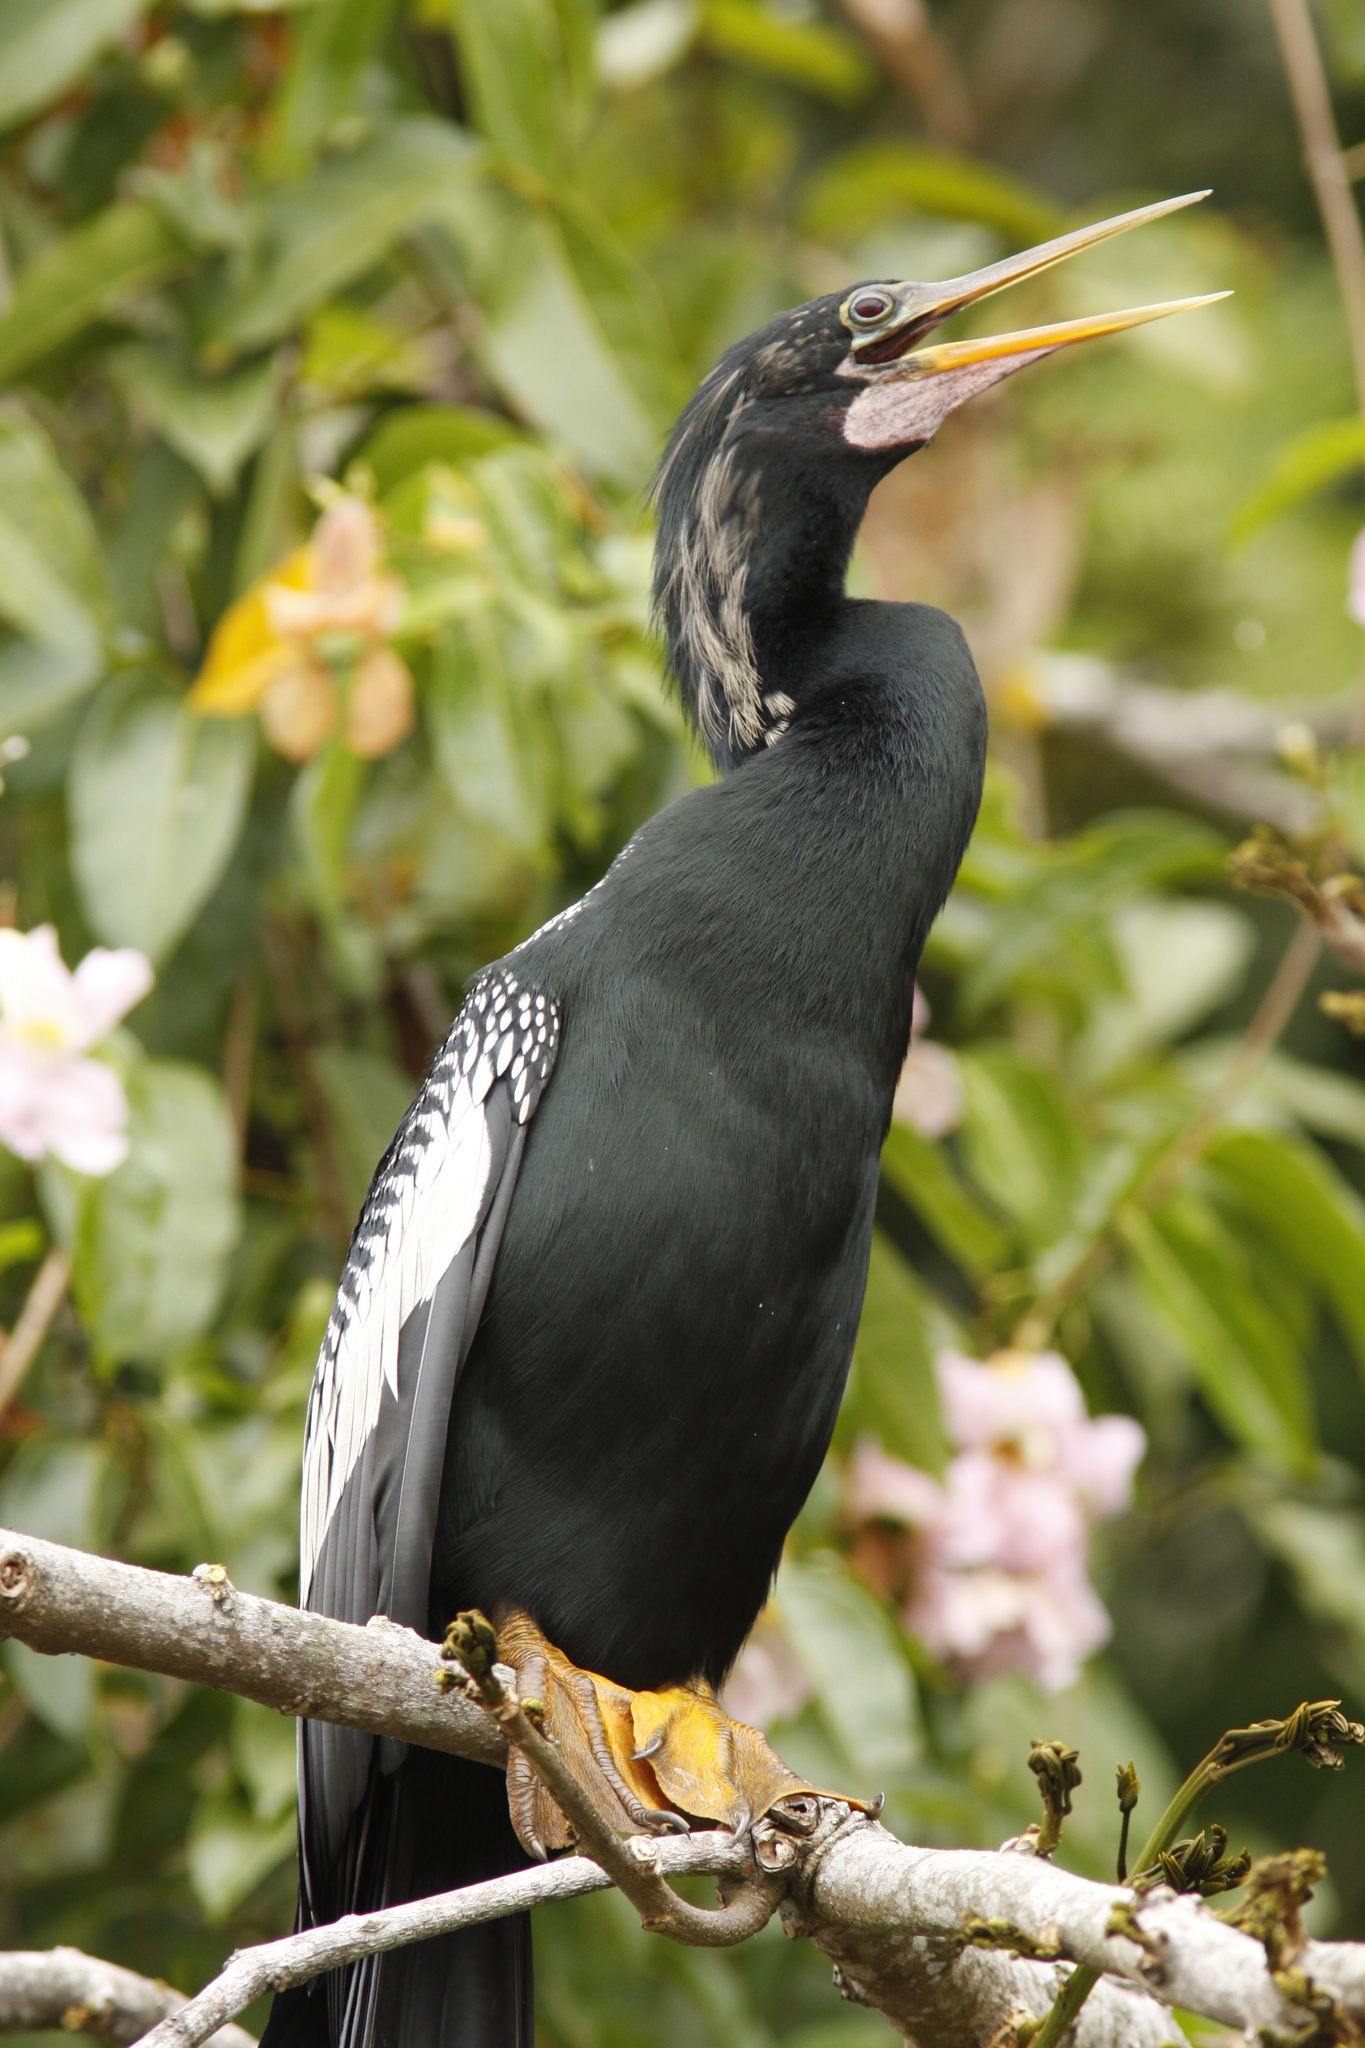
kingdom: Animalia
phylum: Chordata
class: Aves
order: Suliformes
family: Anhingidae
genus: Anhinga
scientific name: Anhinga anhinga
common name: Anhinga
